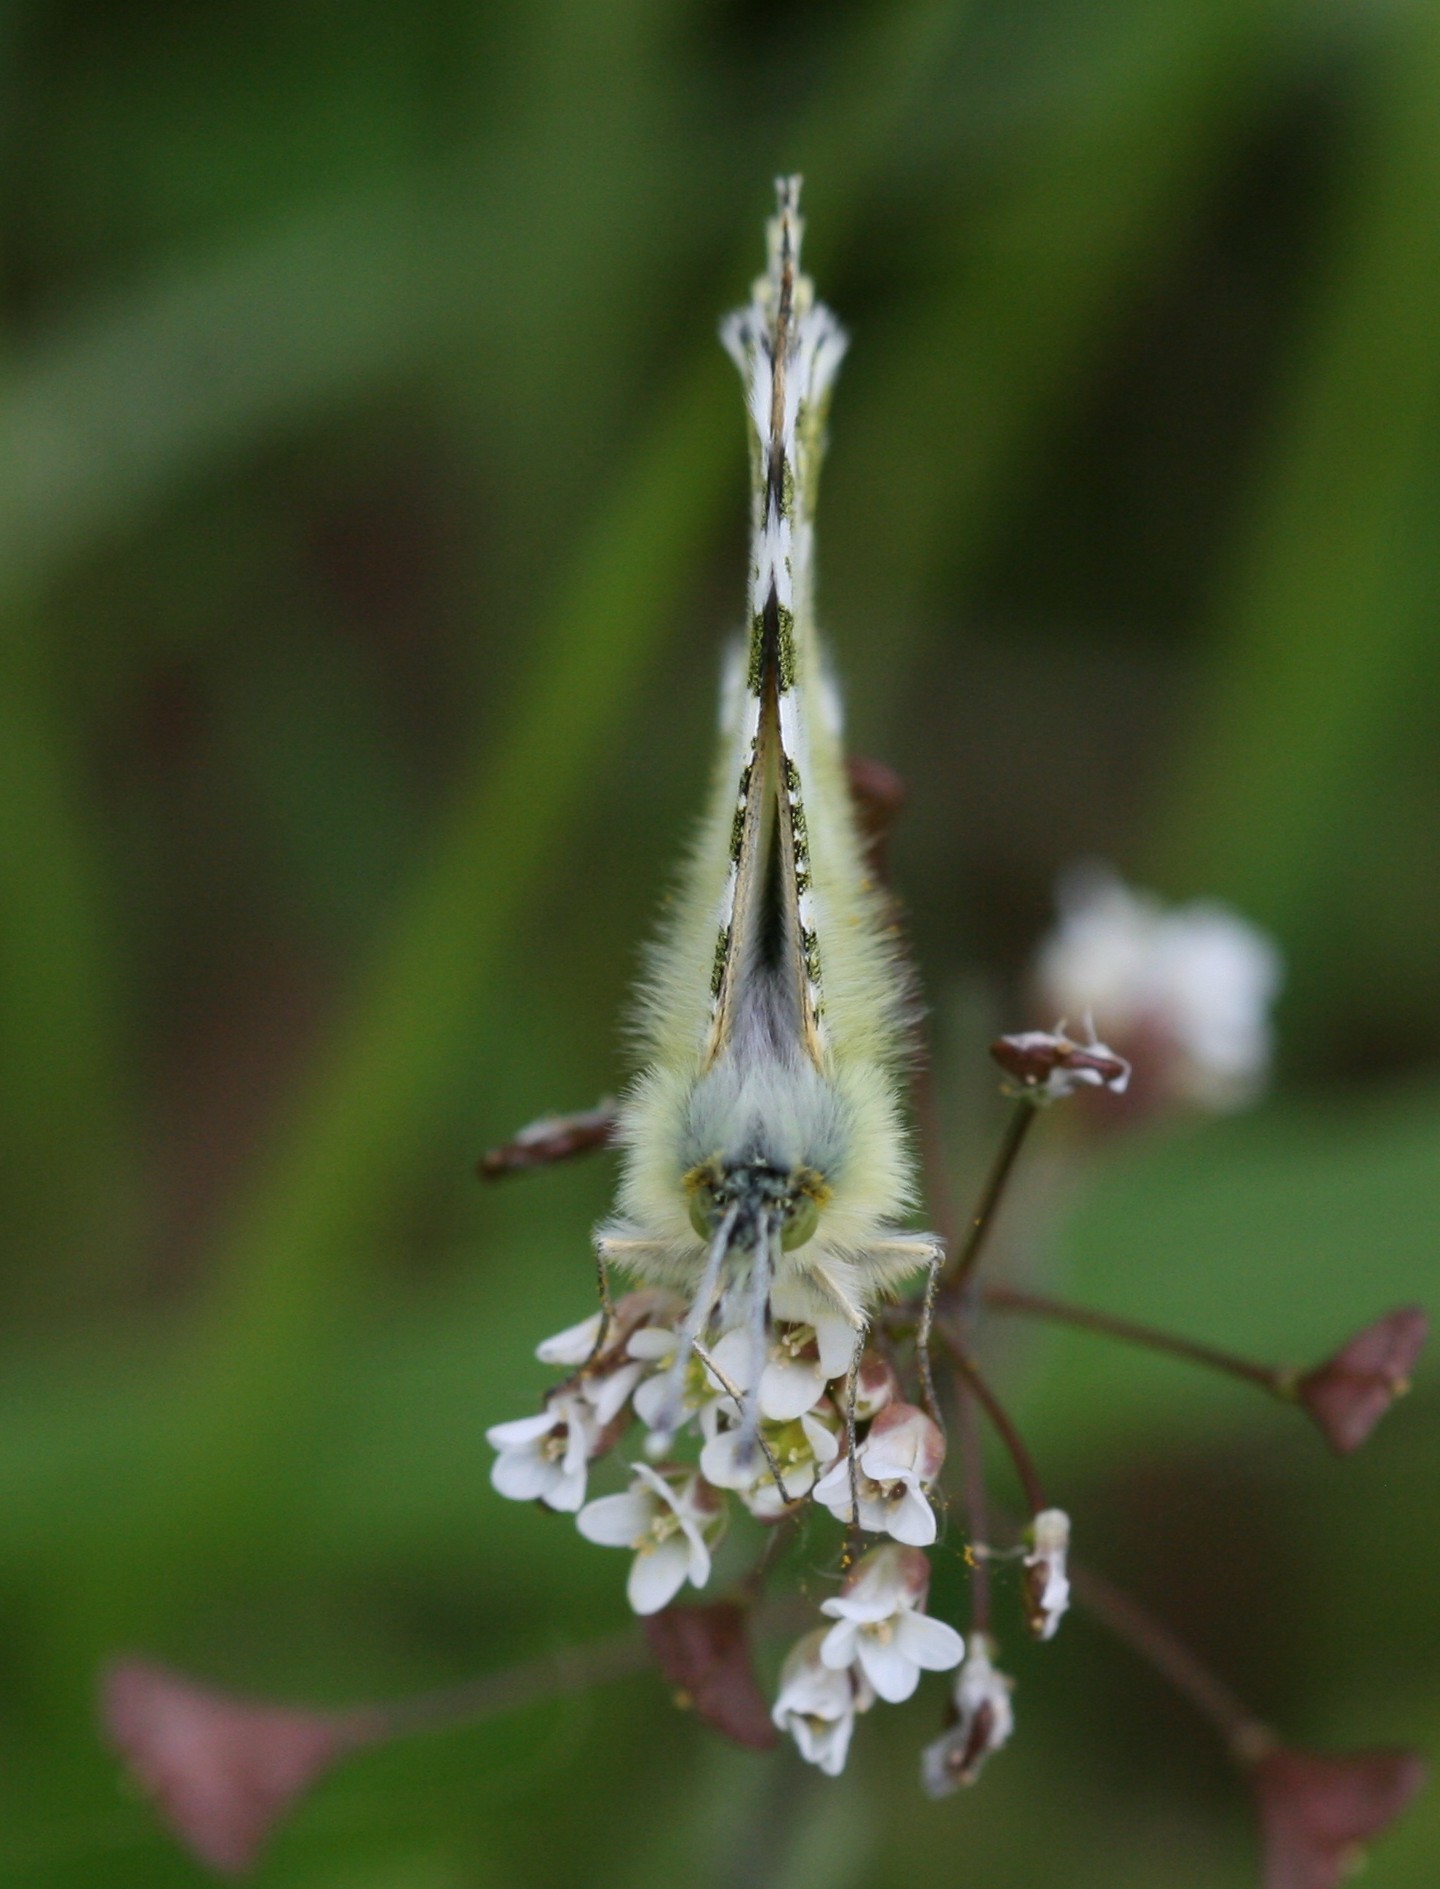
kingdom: Animalia
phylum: Arthropoda
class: Insecta
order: Lepidoptera
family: Pieridae
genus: Anthocharis
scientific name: Anthocharis cardamines
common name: Orange-tip
